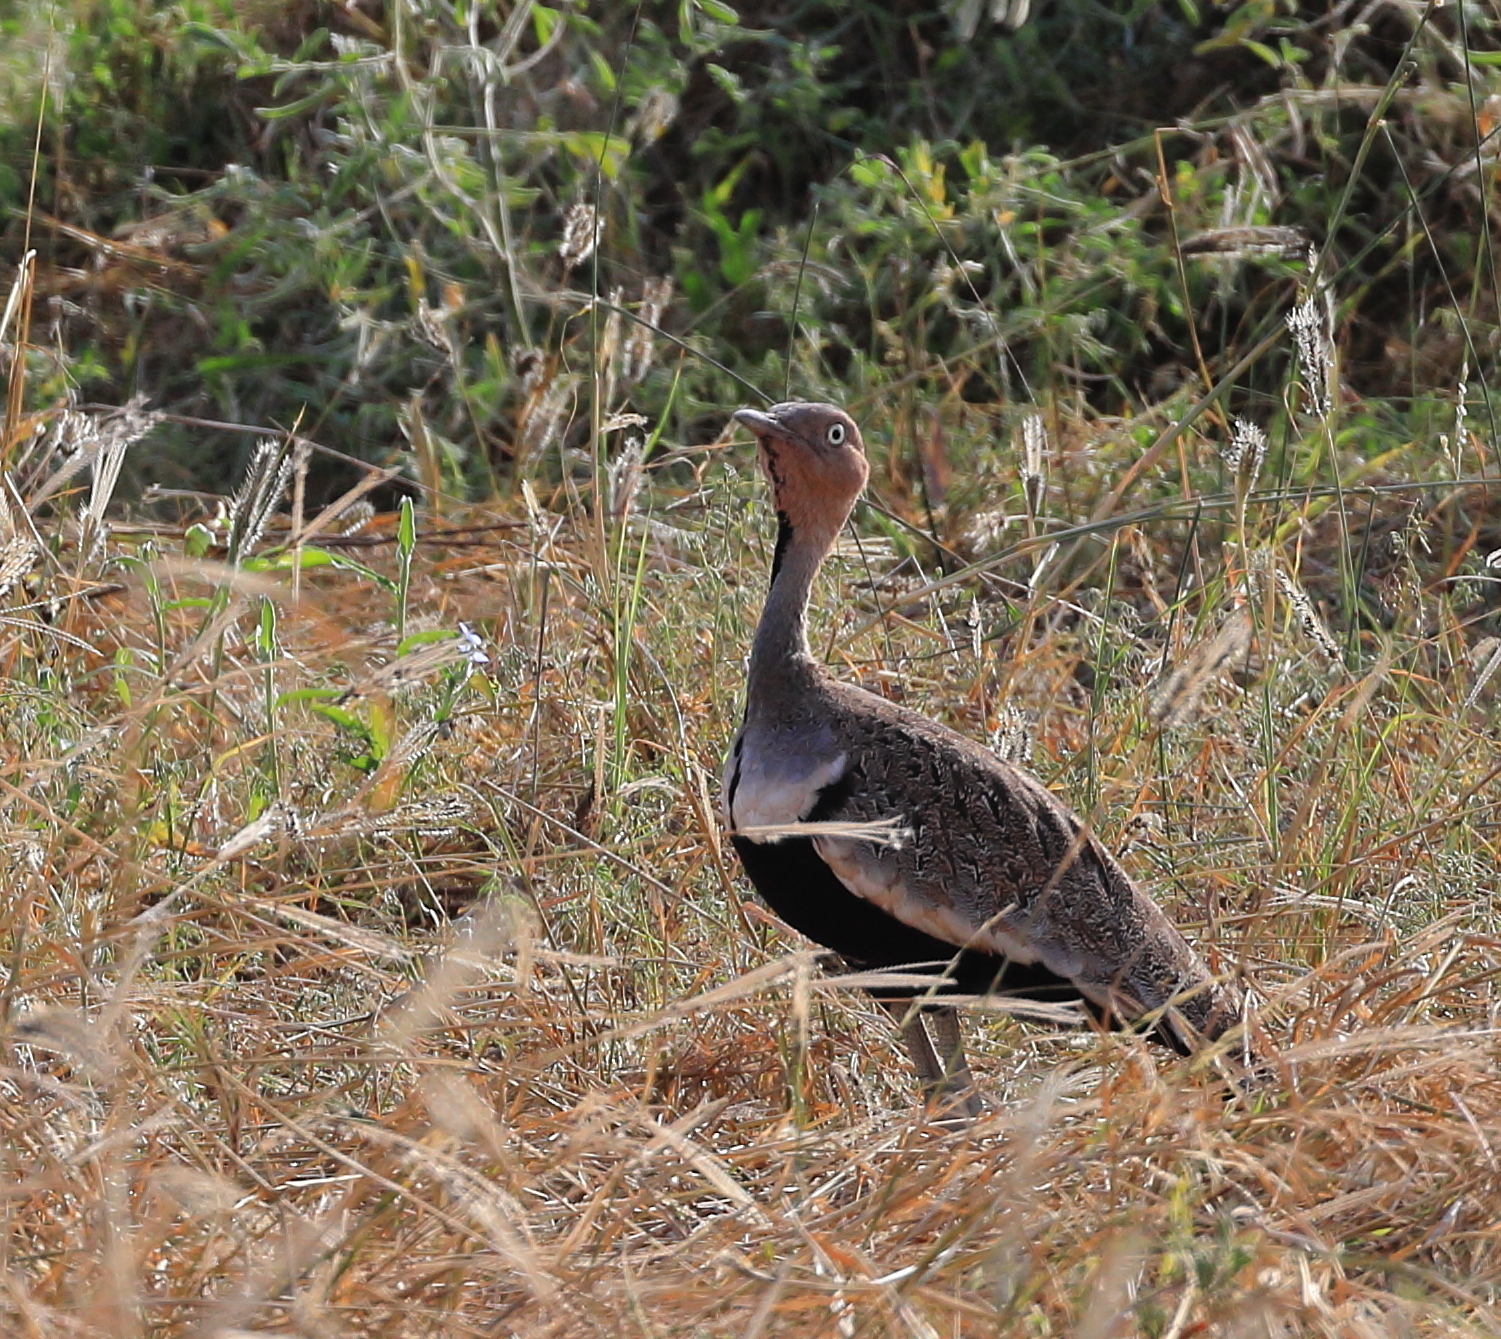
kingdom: Animalia
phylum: Chordata
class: Aves
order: Otidiformes
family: Otididae
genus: Lophotis
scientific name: Lophotis gindiana
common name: Buff-crested bustard
